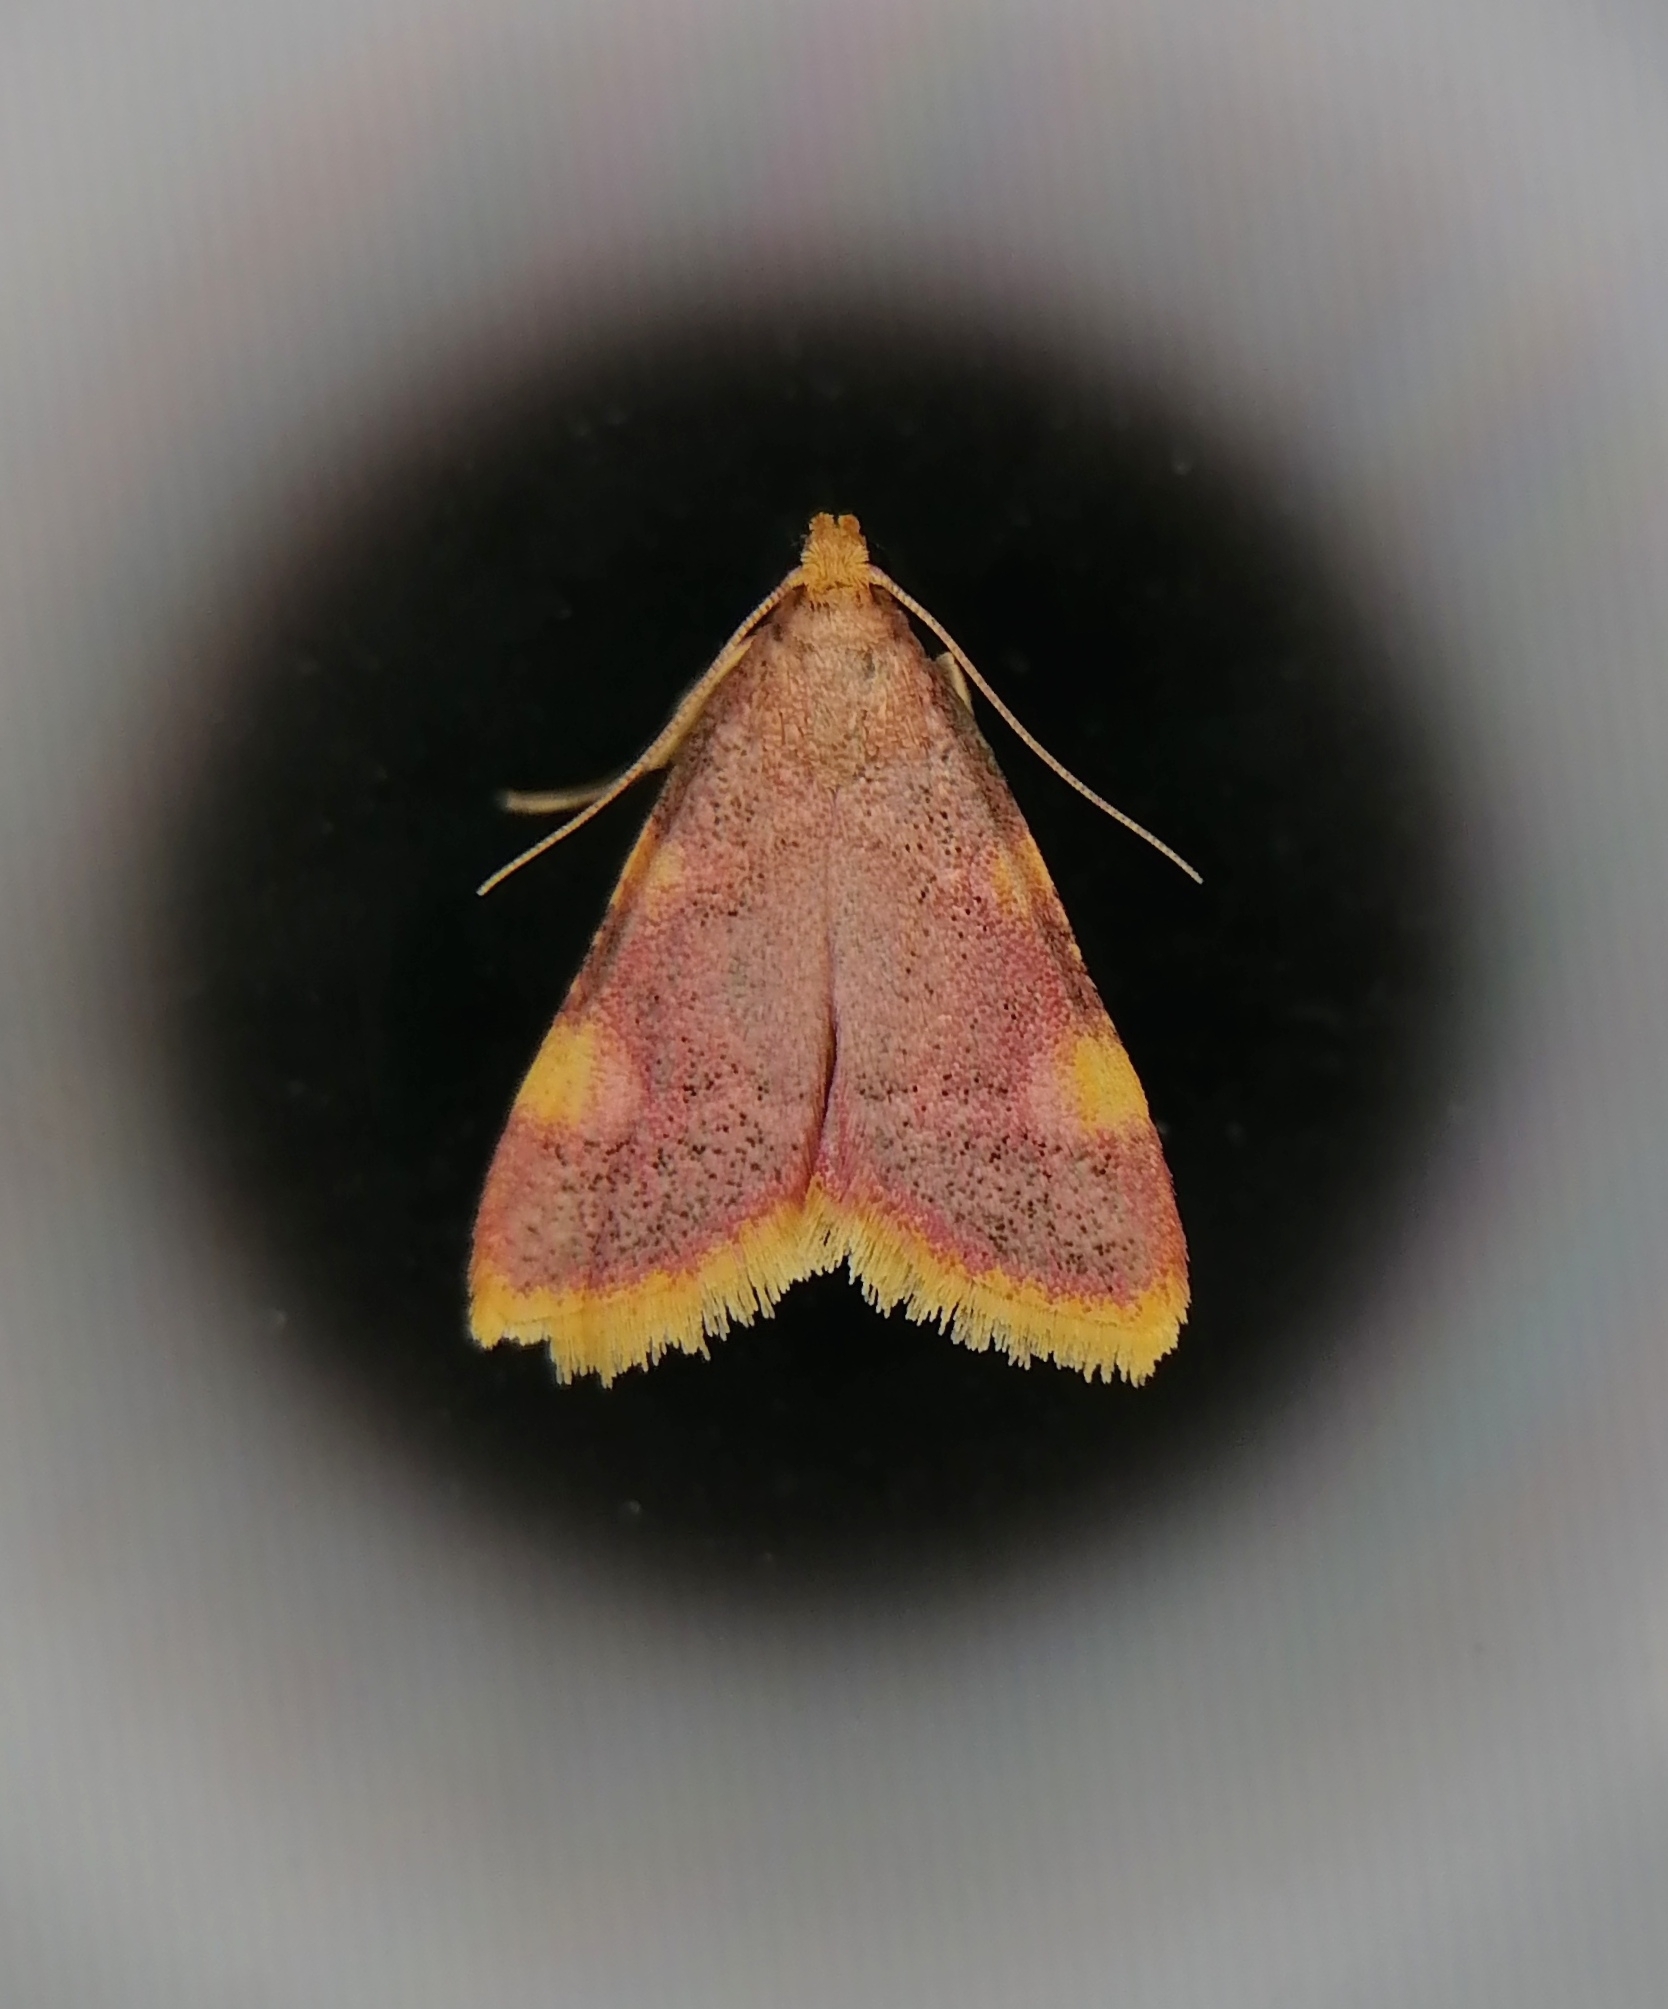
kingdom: Animalia
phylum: Arthropoda
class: Insecta
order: Lepidoptera
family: Pyralidae
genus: Hypsopygia
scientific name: Hypsopygia costalis
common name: Gold triangle
